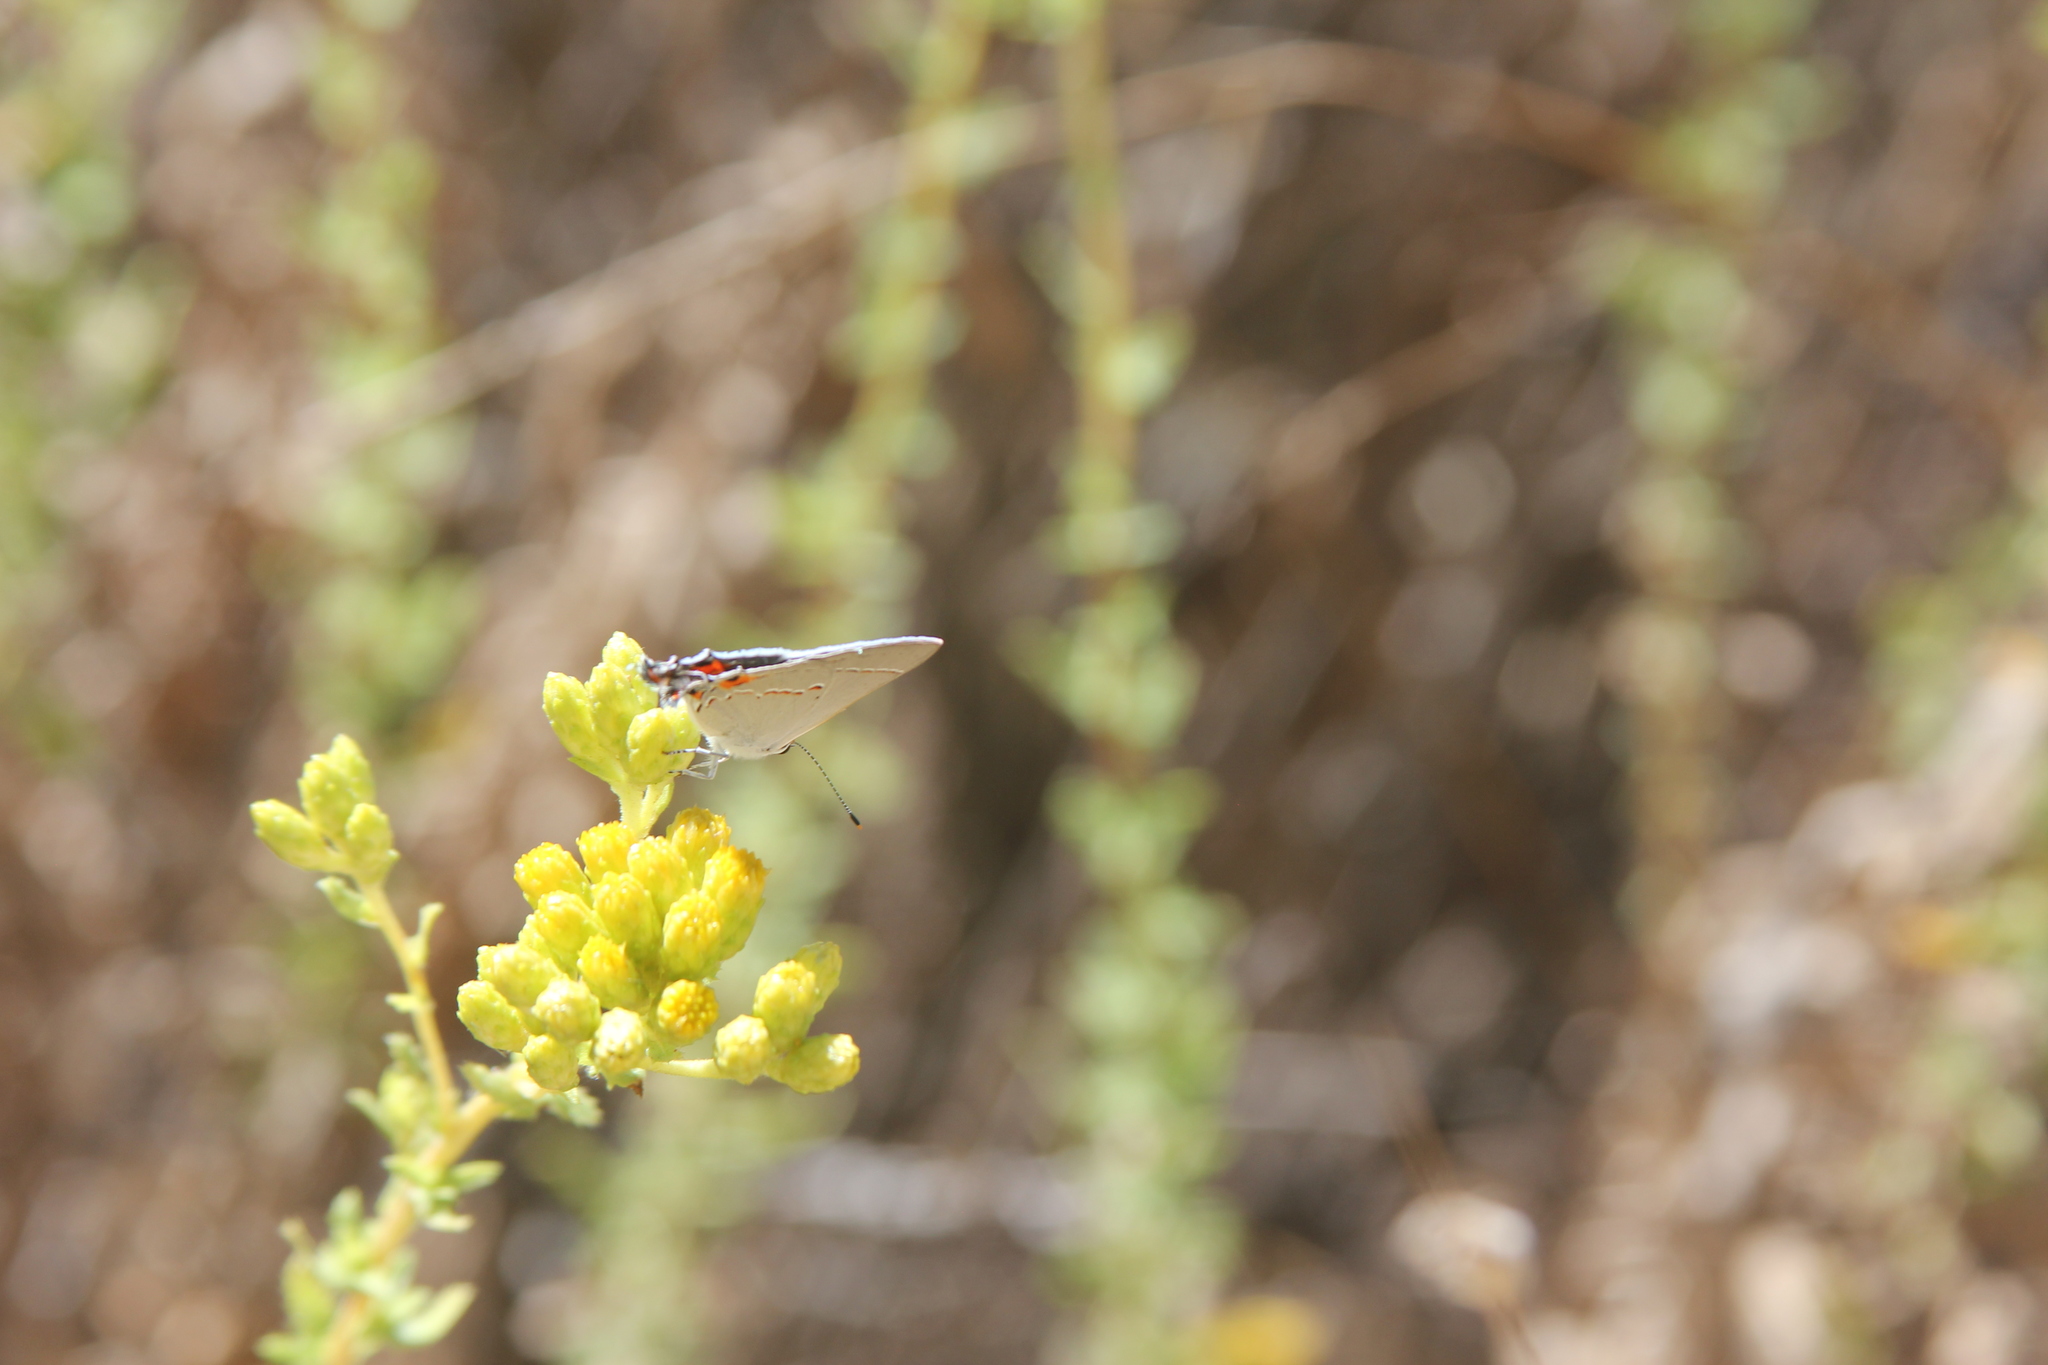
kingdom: Animalia
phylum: Arthropoda
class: Insecta
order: Lepidoptera
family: Lycaenidae
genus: Strymon
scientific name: Strymon melinus
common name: Gray hairstreak
